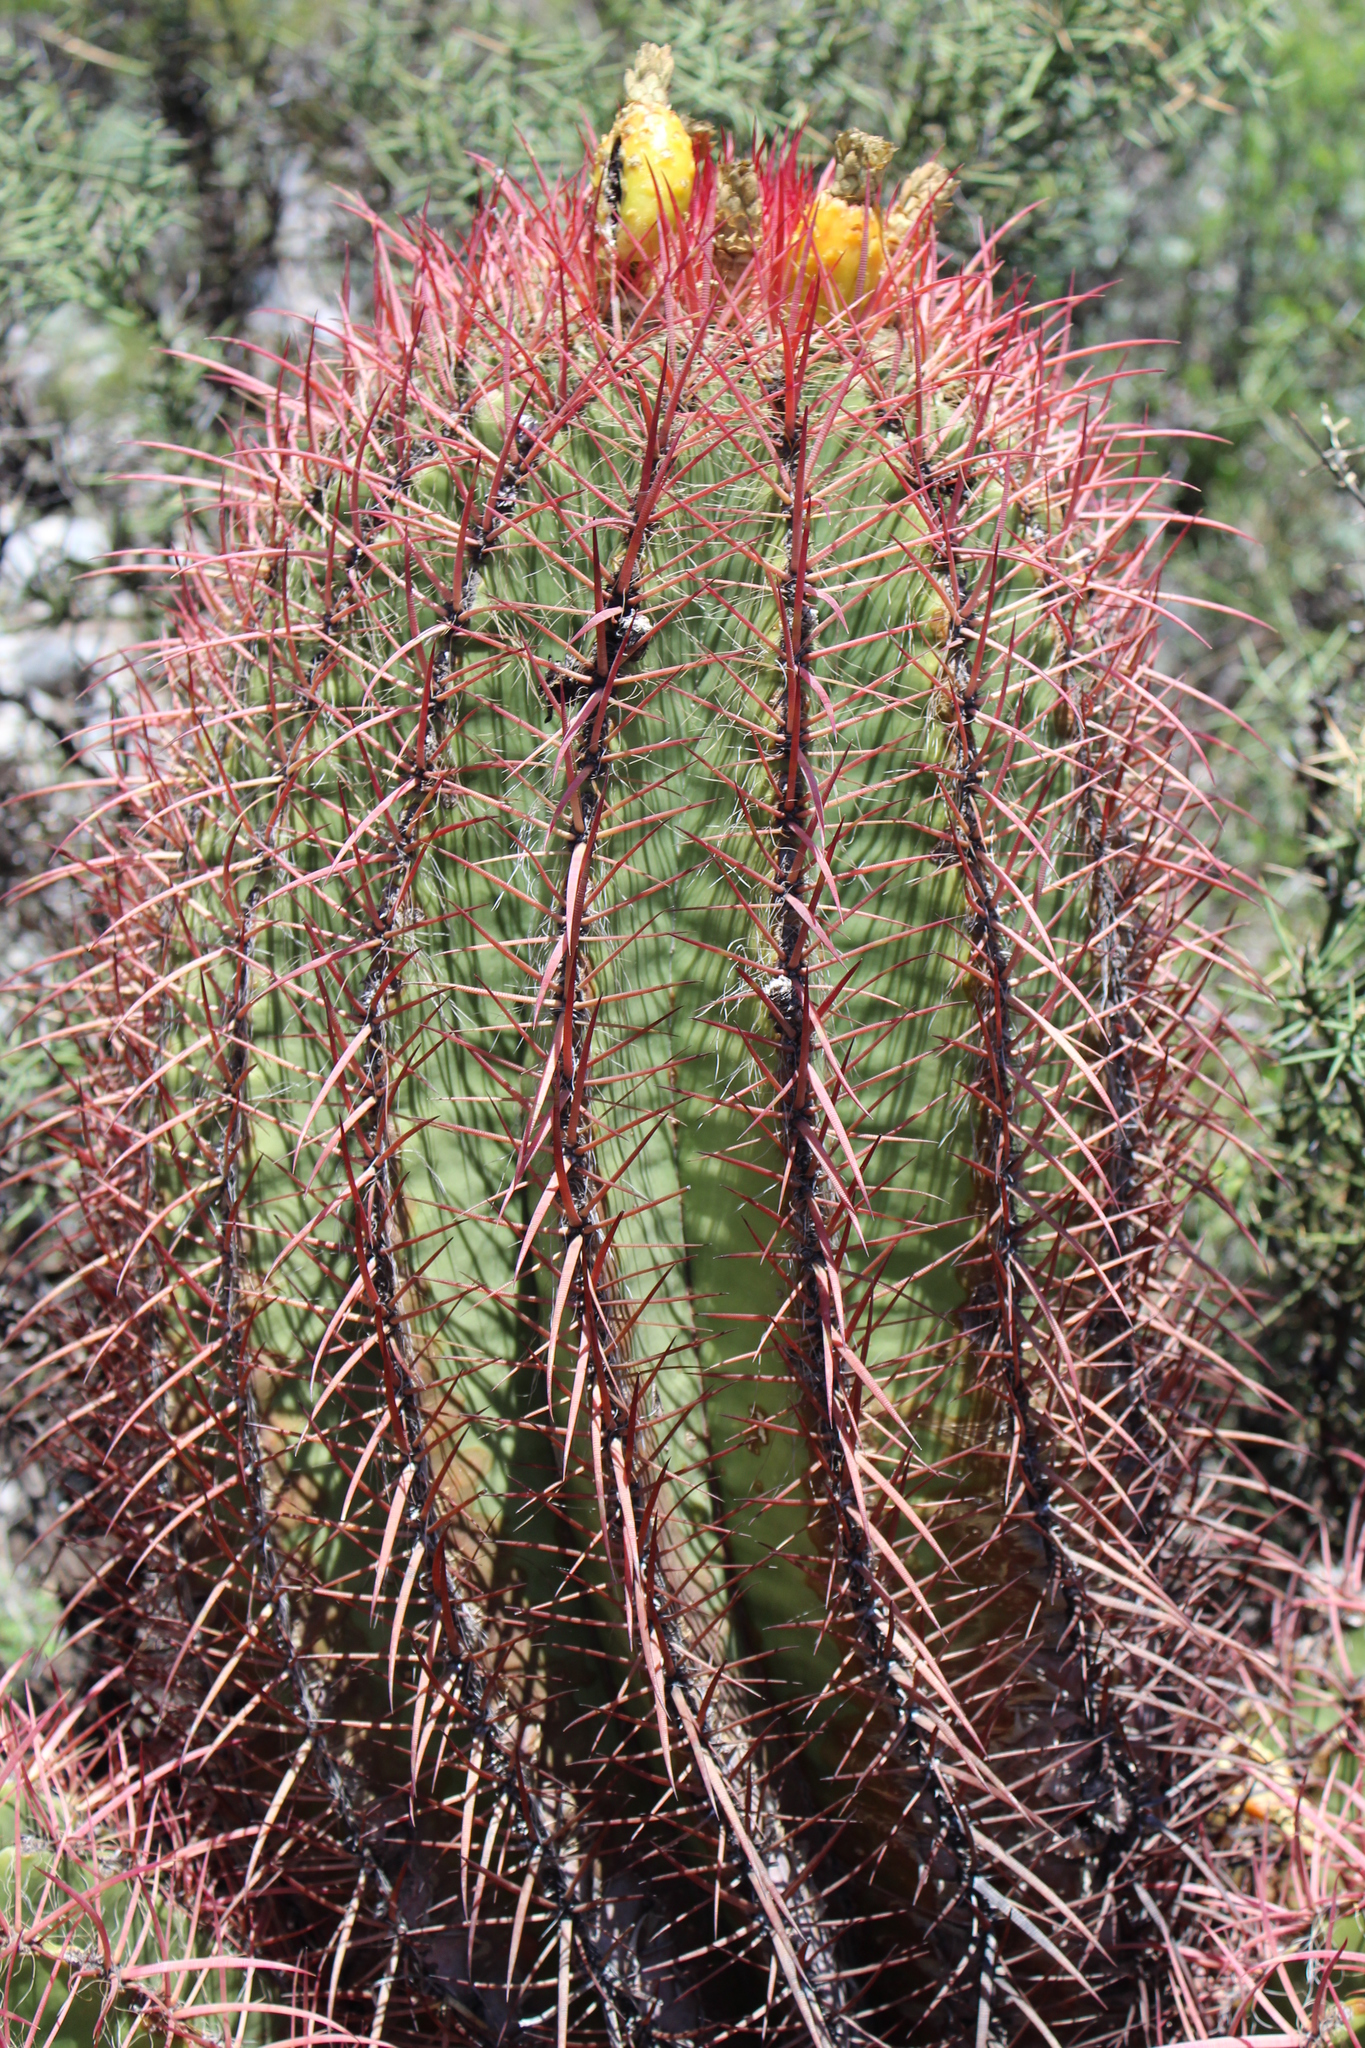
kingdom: Plantae
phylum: Tracheophyta
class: Magnoliopsida
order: Caryophyllales
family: Cactaceae
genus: Ferocactus
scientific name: Ferocactus pilosus
